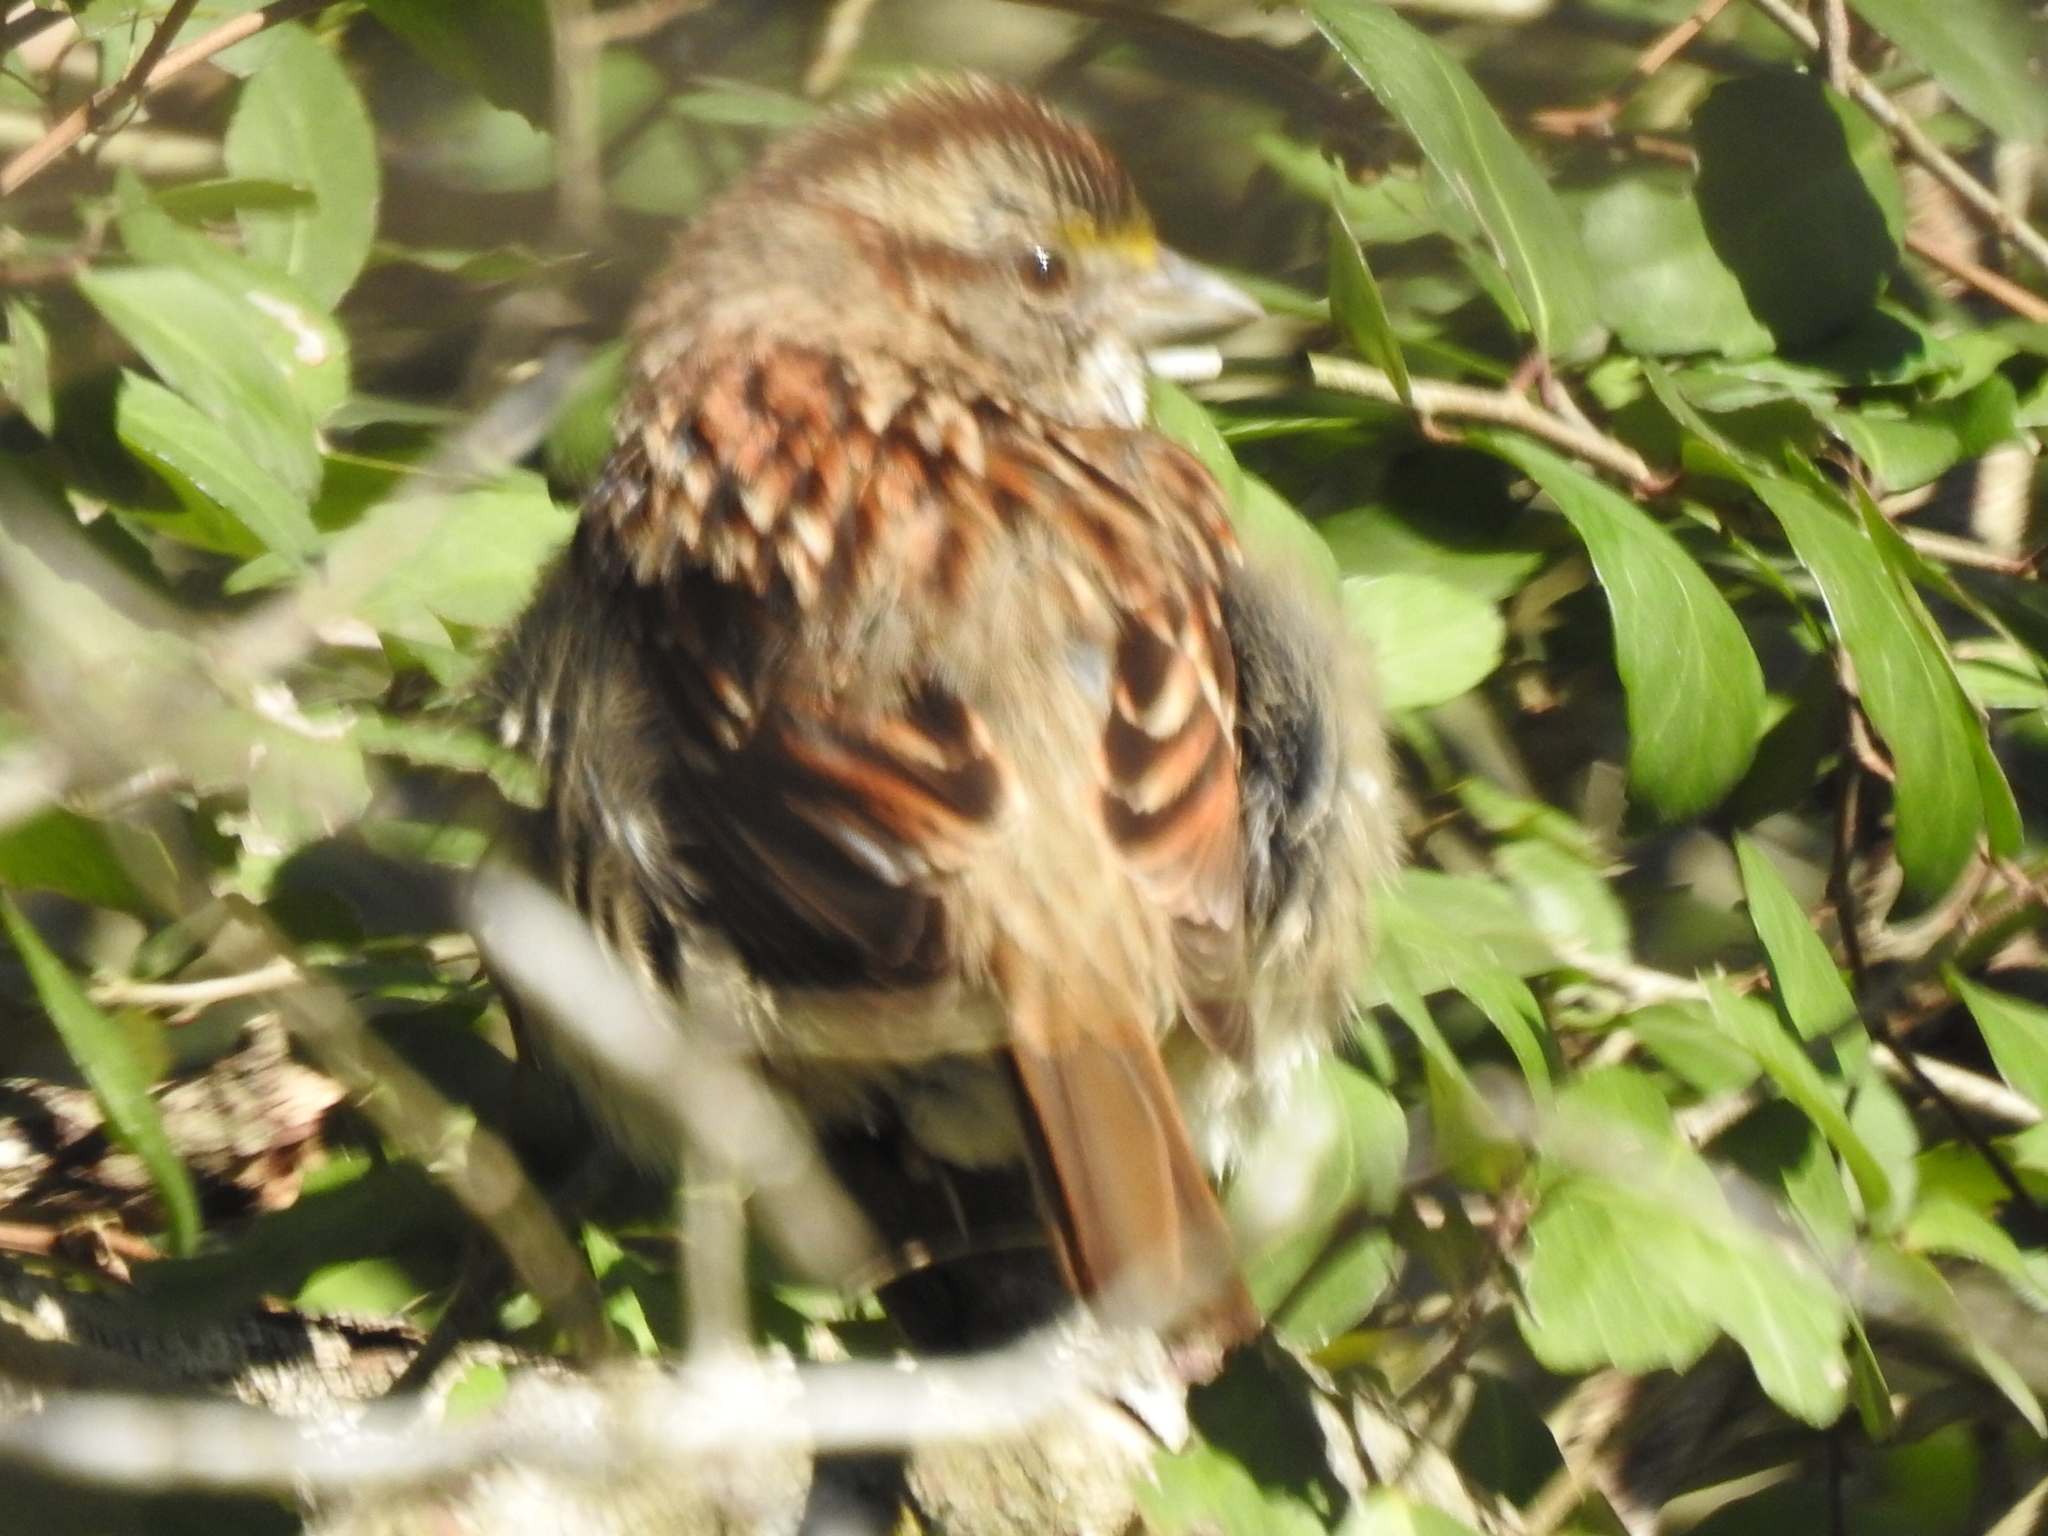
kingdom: Animalia
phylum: Chordata
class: Aves
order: Passeriformes
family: Passerellidae
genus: Zonotrichia
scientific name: Zonotrichia albicollis
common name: White-throated sparrow
